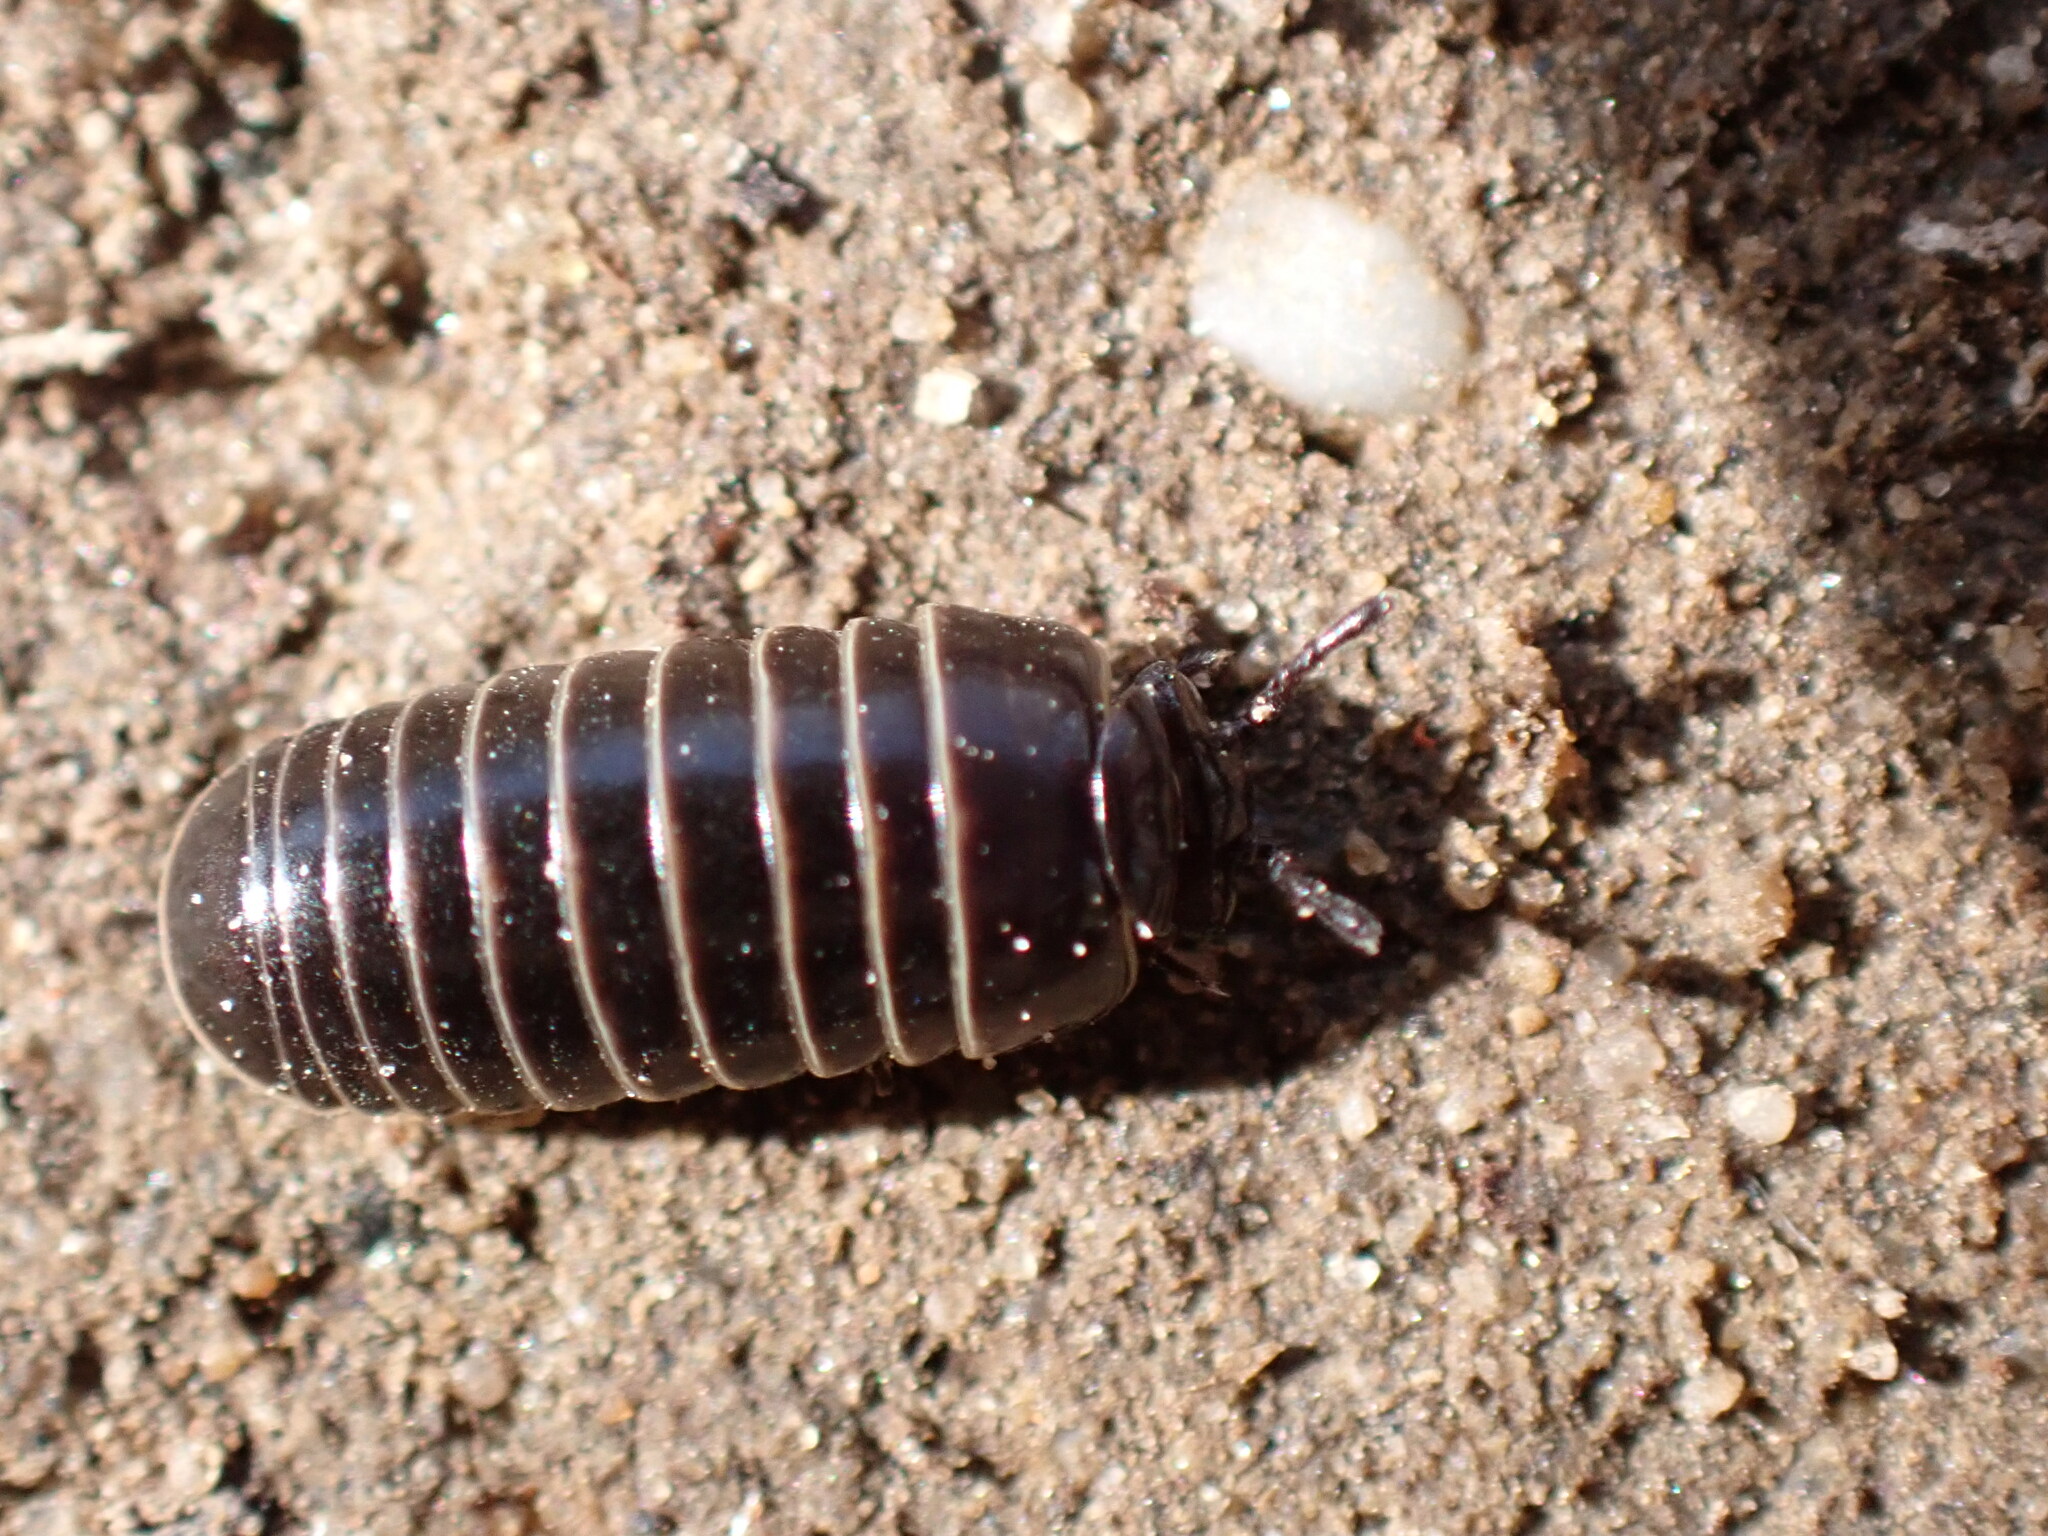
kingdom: Animalia
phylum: Arthropoda
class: Diplopoda
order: Glomerida
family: Glomeridae
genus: Glomeris
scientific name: Glomeris marginata
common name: Bordered pill millipede
